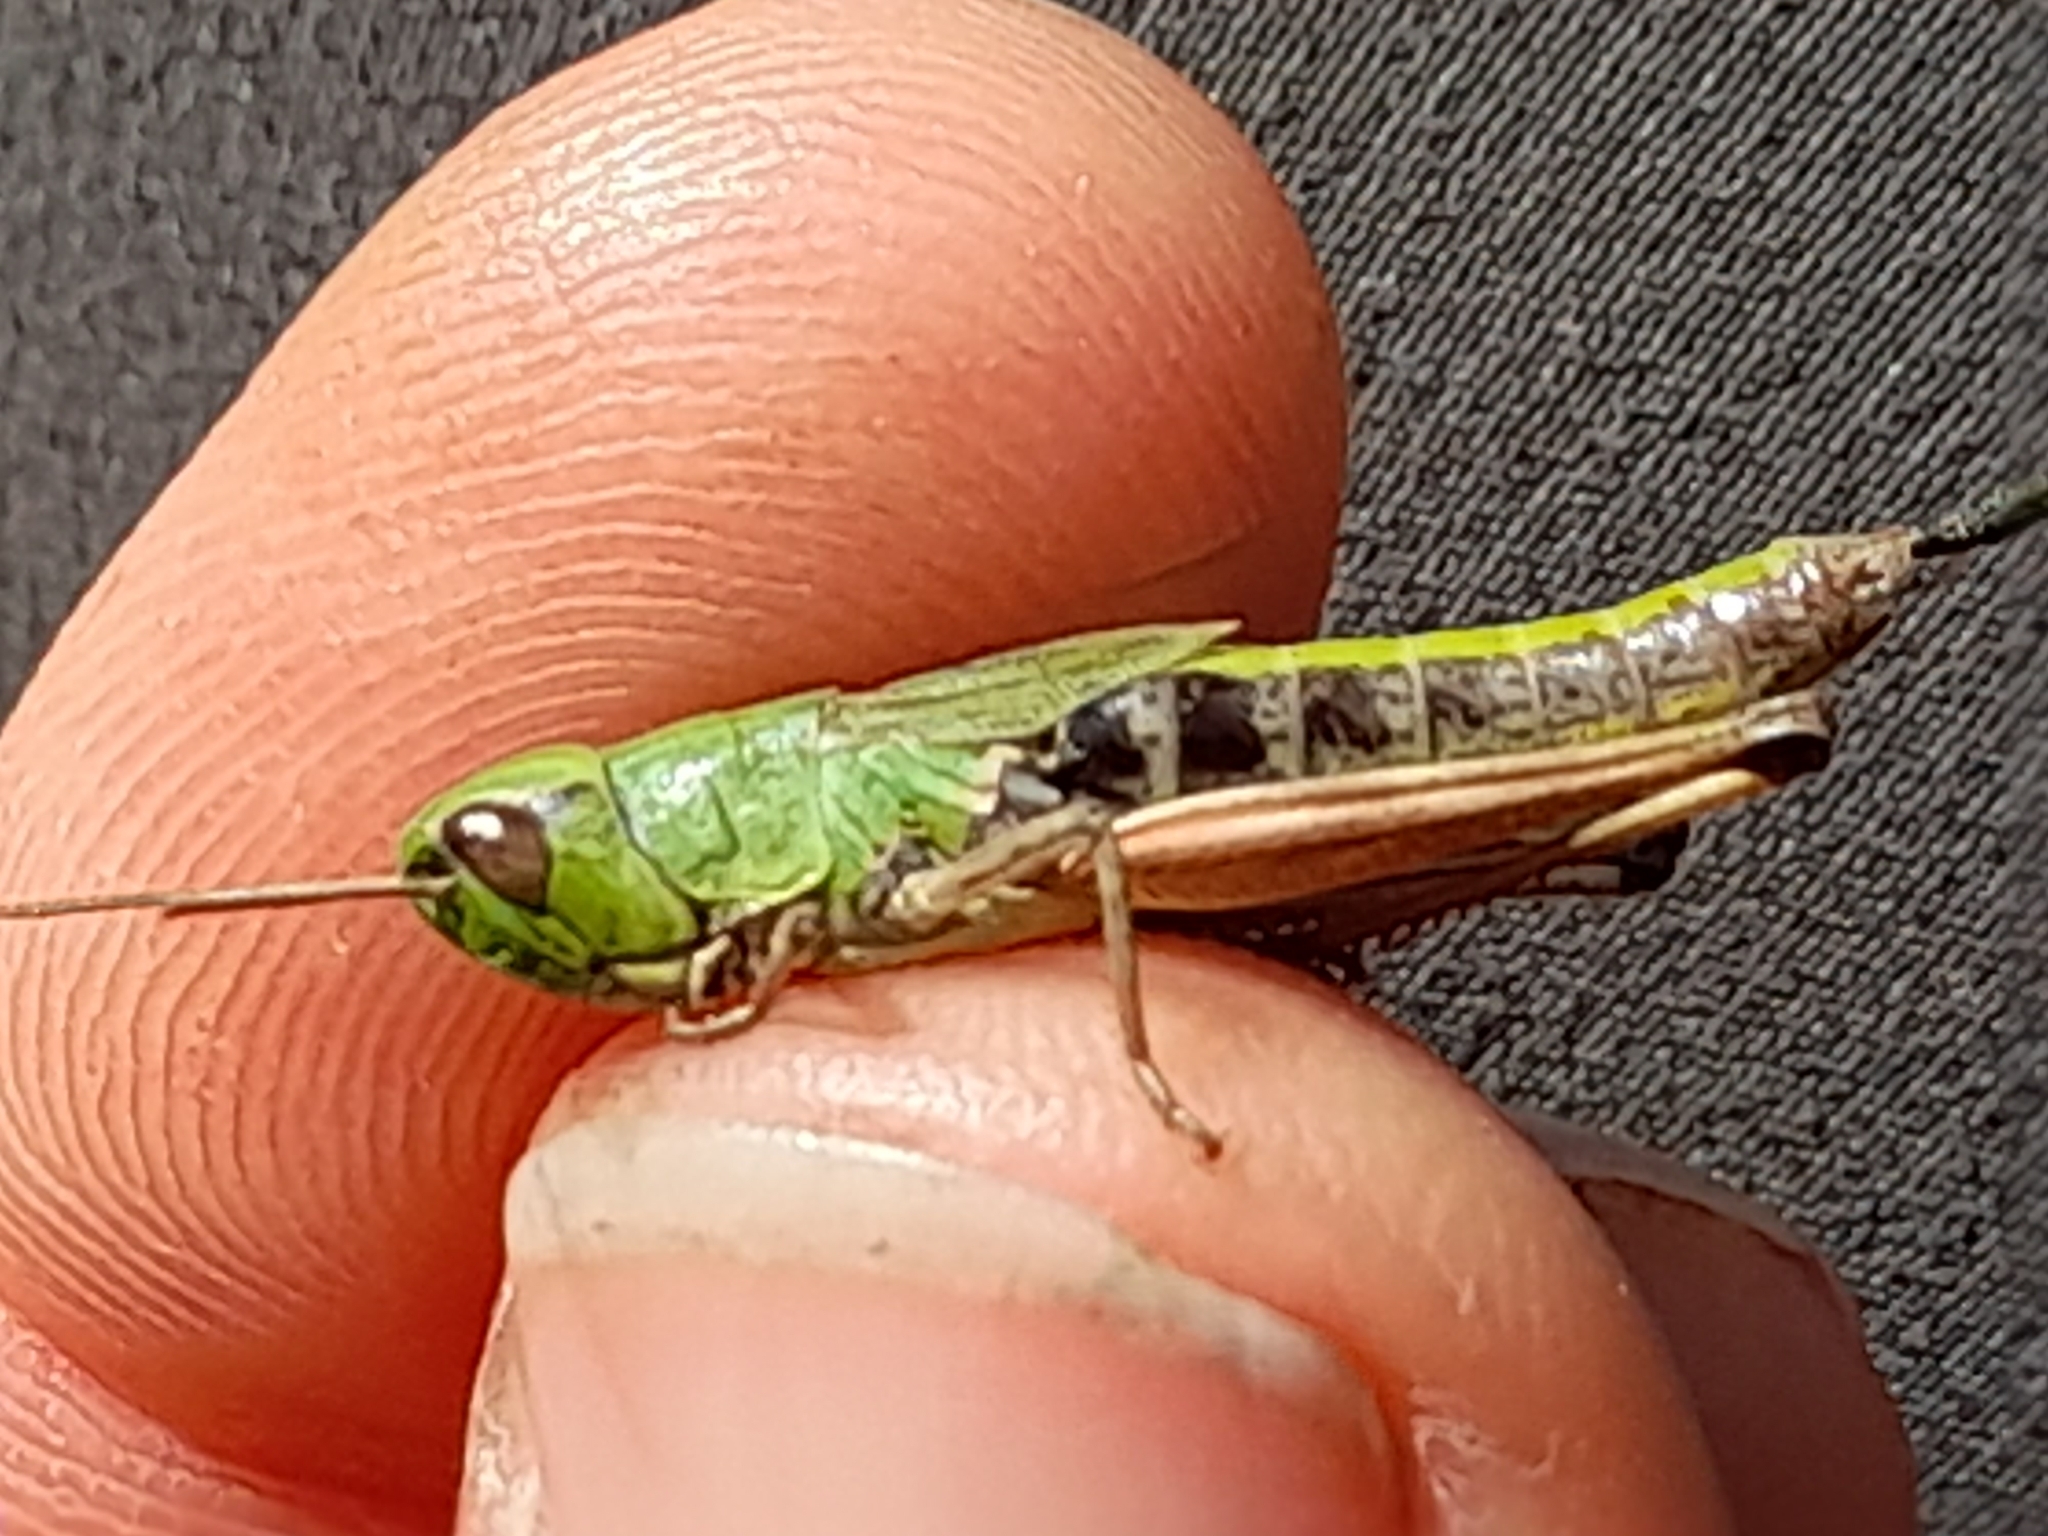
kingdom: Animalia
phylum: Arthropoda
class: Insecta
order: Orthoptera
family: Acrididae
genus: Pseudochorthippus
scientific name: Pseudochorthippus parallelus
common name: Meadow grasshopper
